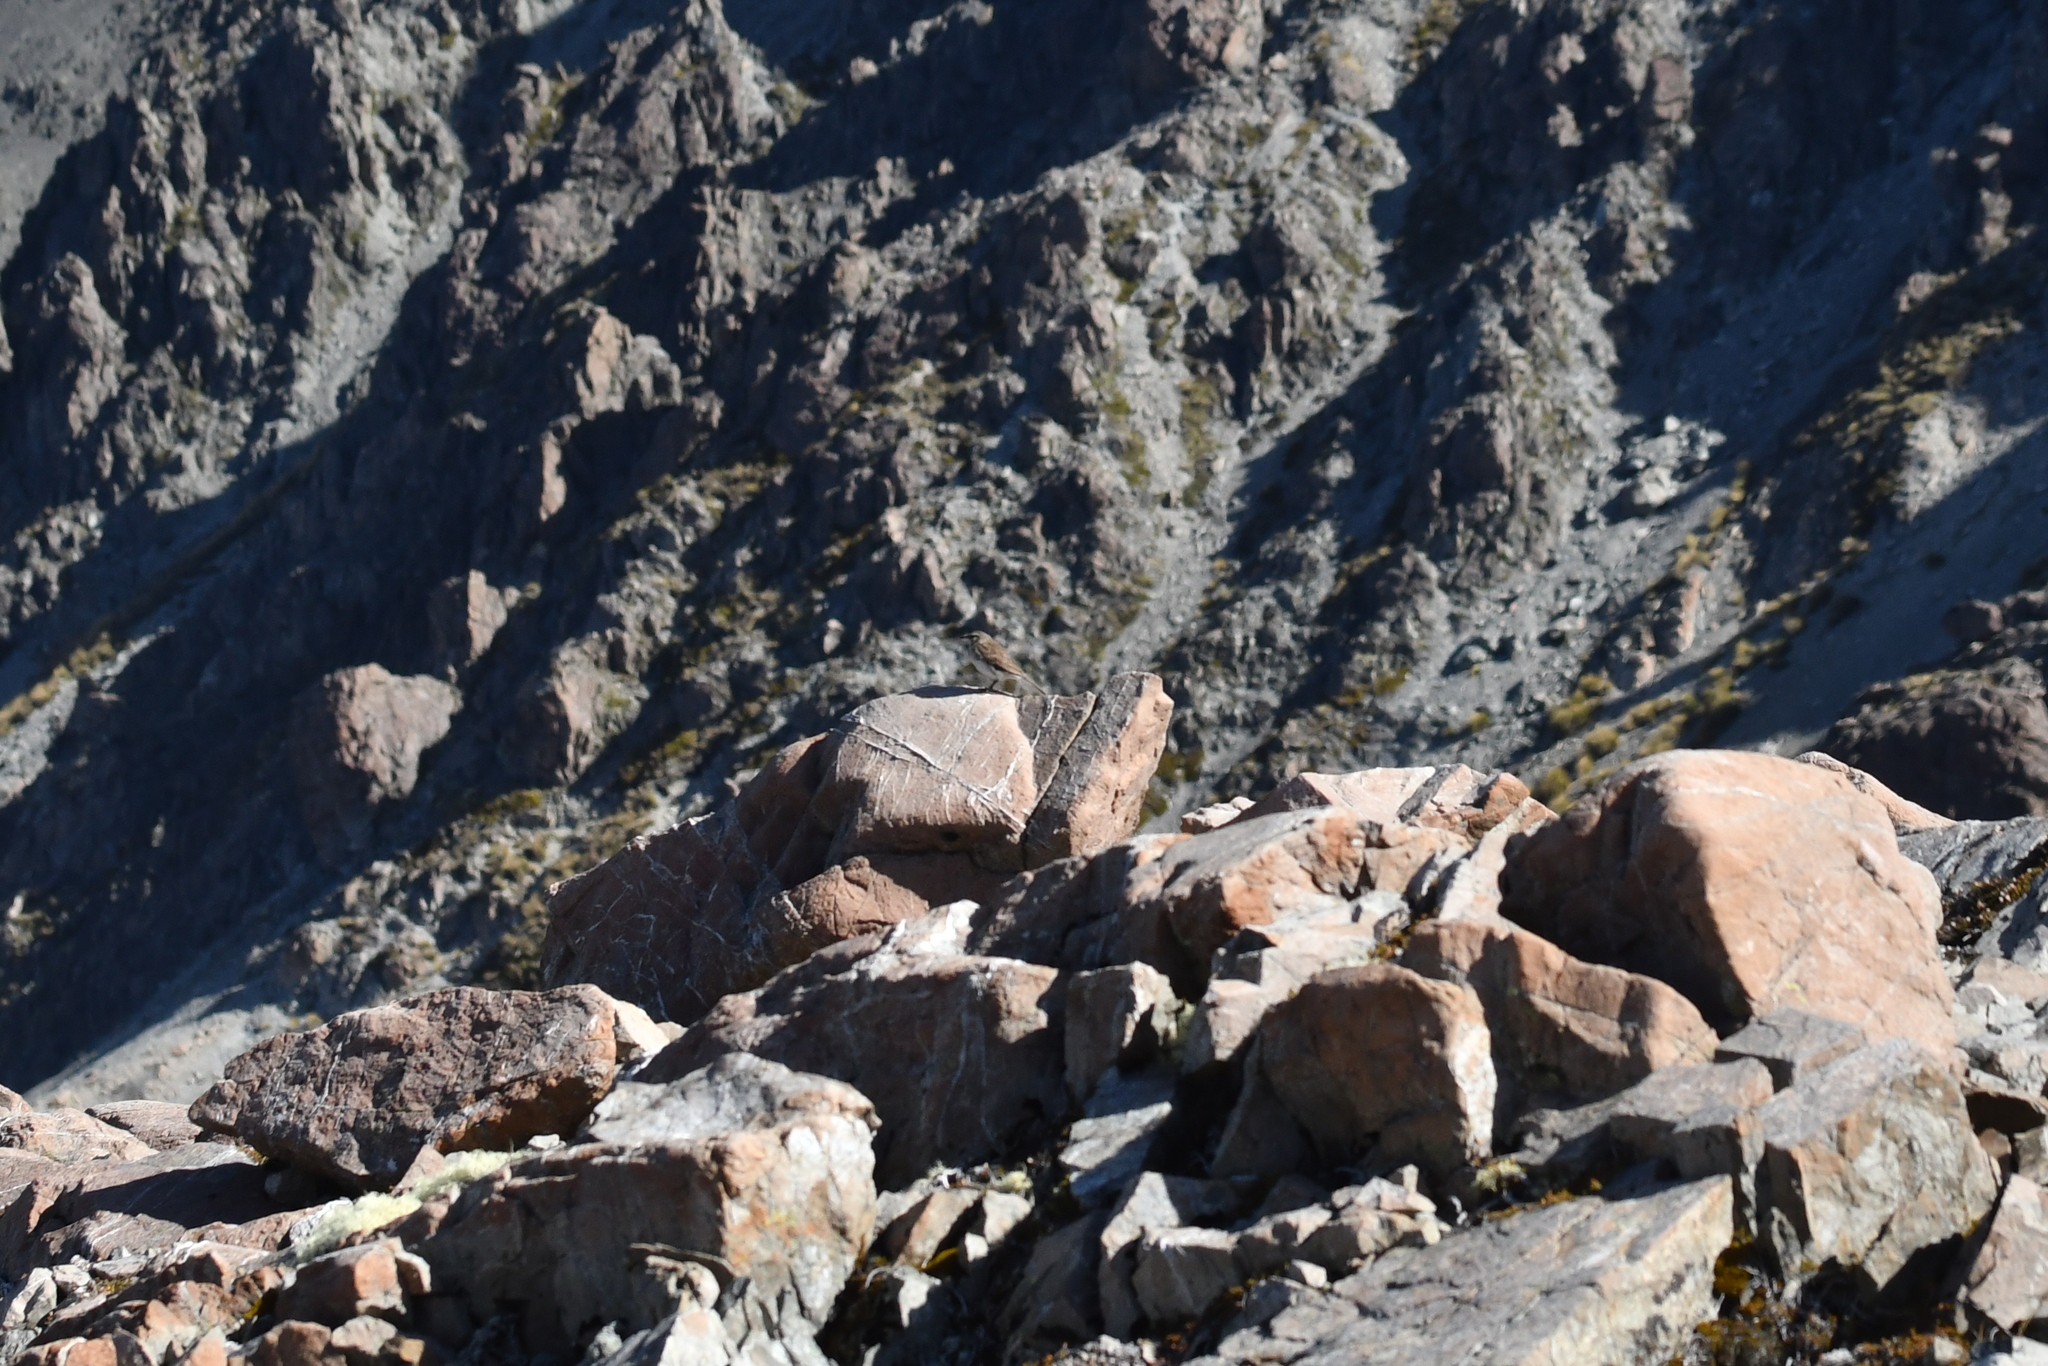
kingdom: Animalia
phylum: Chordata
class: Aves
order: Passeriformes
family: Motacillidae
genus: Anthus
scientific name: Anthus novaeseelandiae
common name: New zealand pipit
